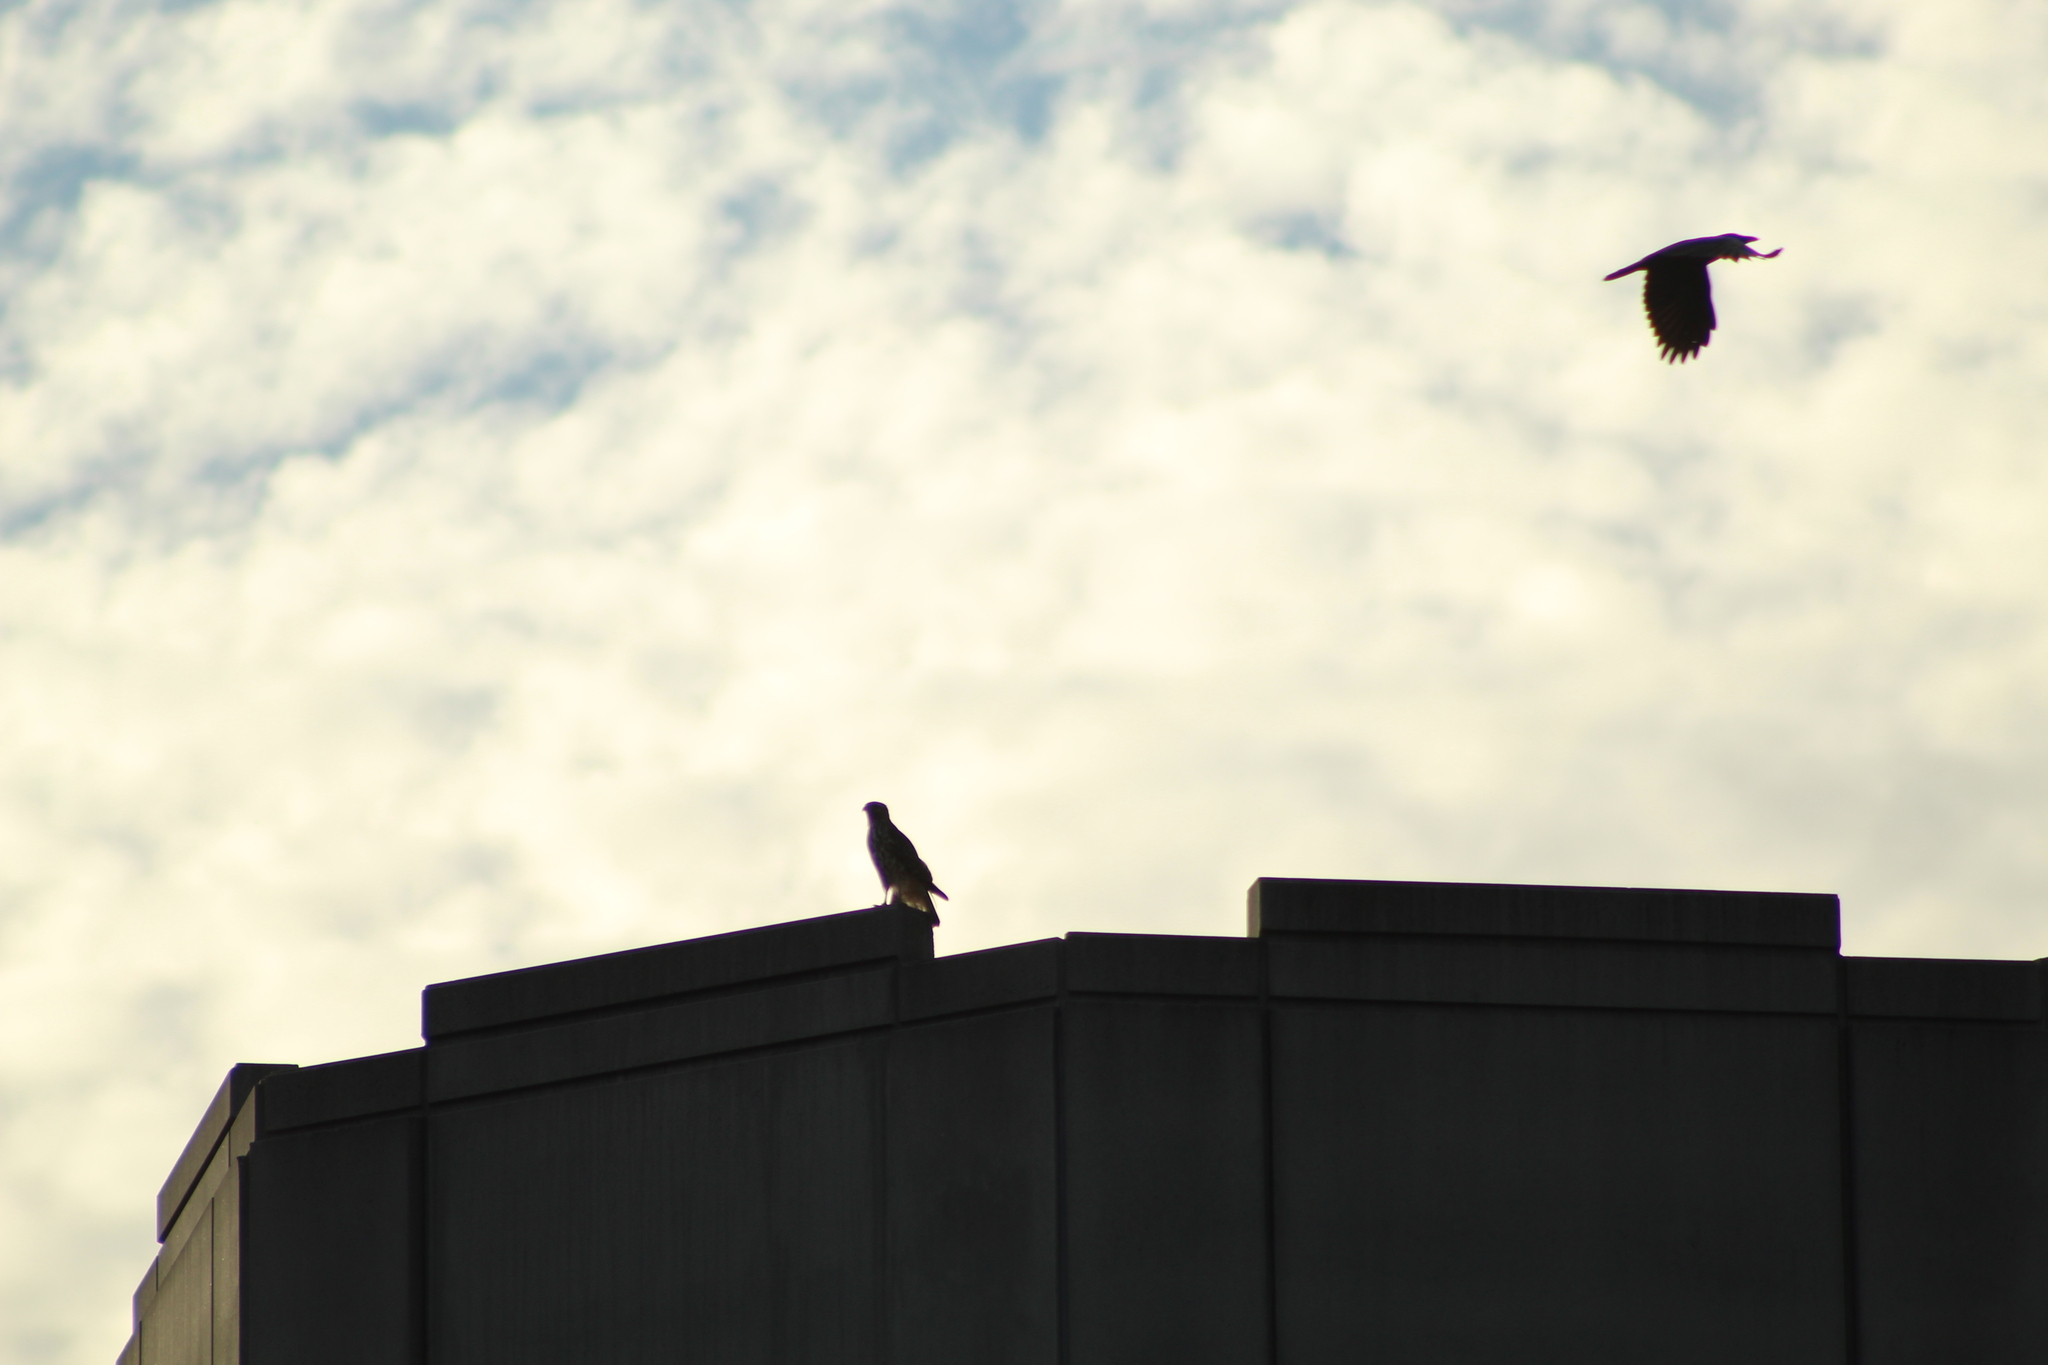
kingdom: Animalia
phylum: Chordata
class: Aves
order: Passeriformes
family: Corvidae
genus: Corvus
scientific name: Corvus brachyrhynchos
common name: American crow
